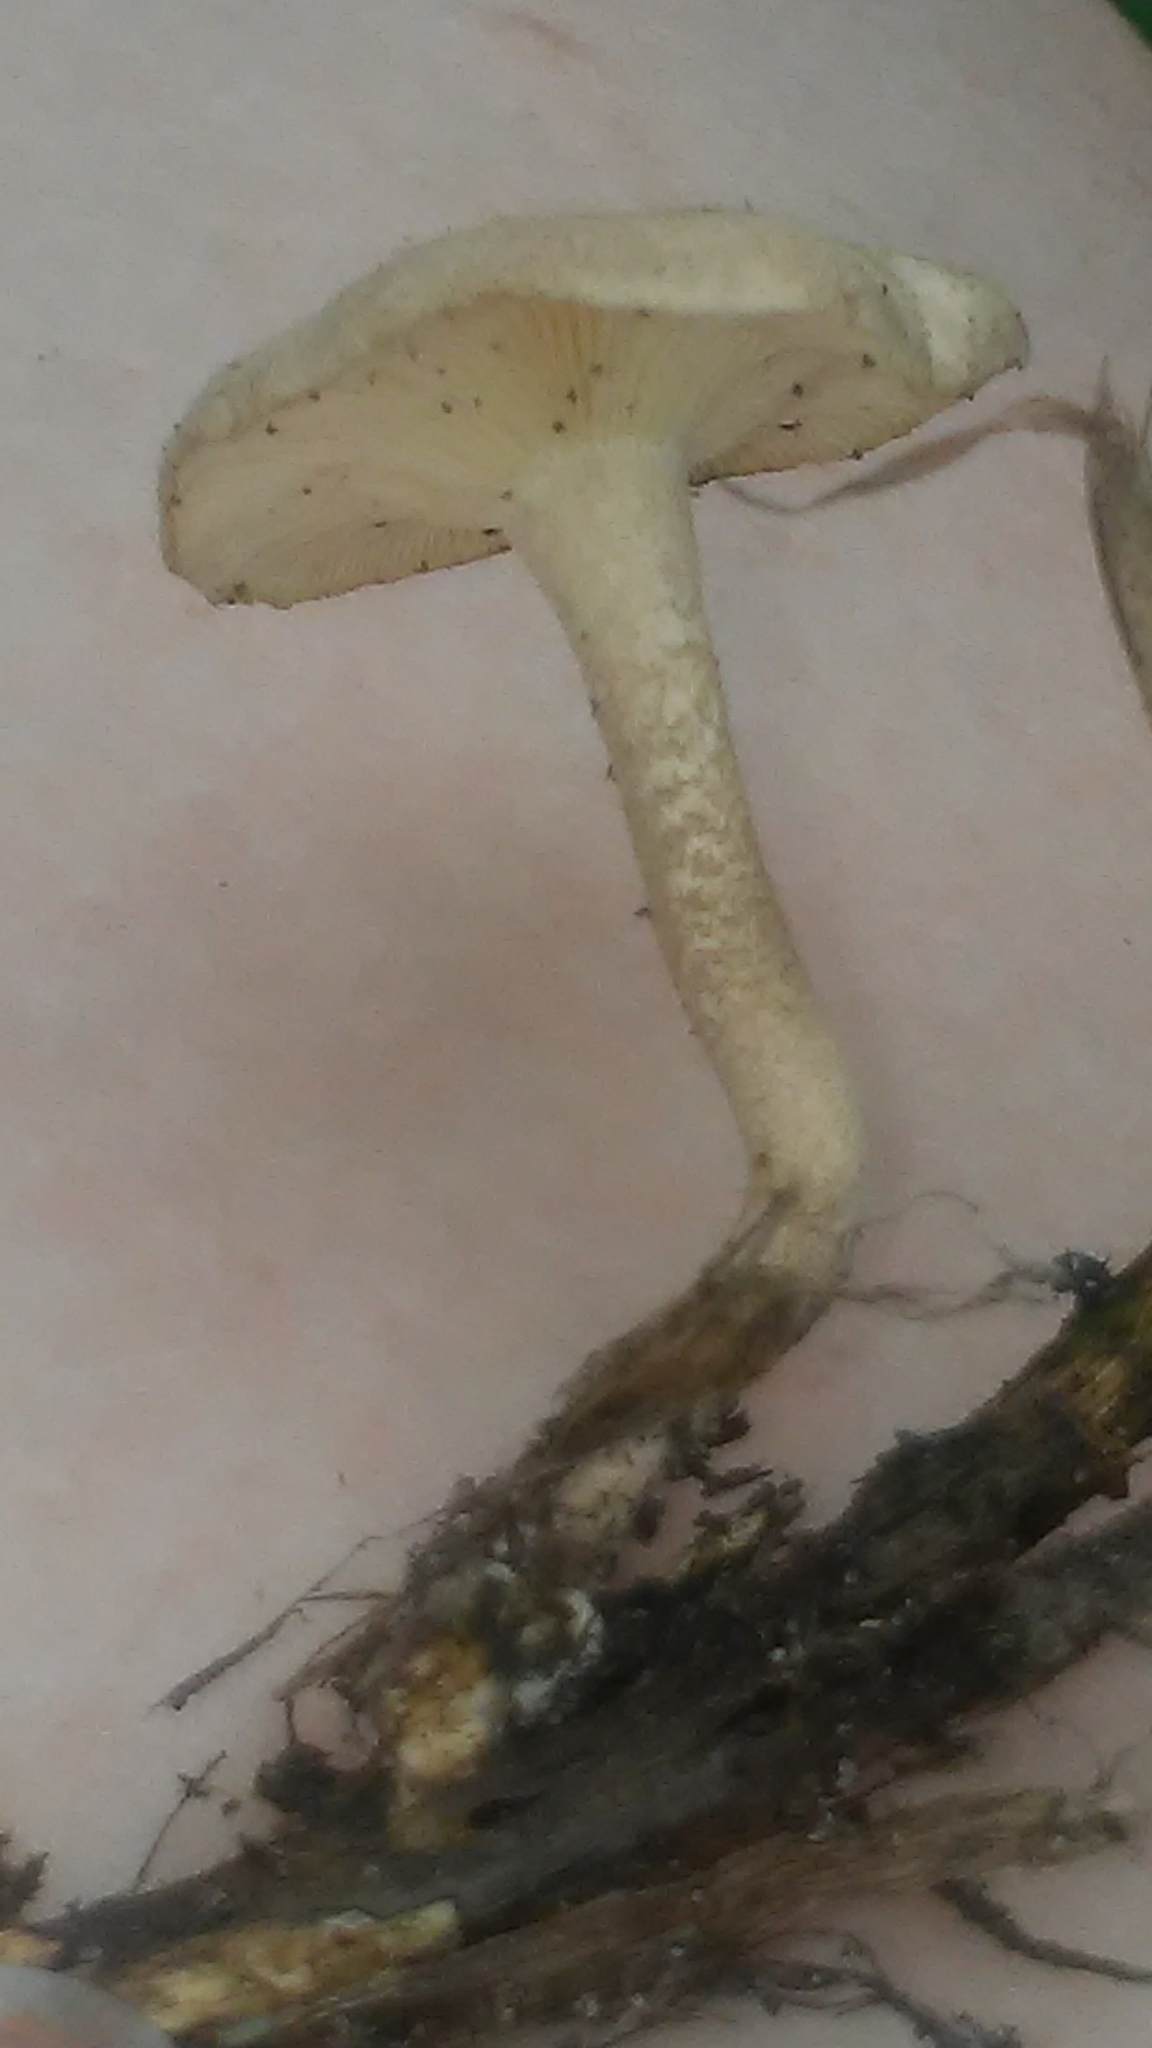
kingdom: Fungi
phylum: Basidiomycota
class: Agaricomycetes
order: Polyporales
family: Polyporaceae
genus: Lentinus
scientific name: Lentinus tigrinus
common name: Tiger sawgill
